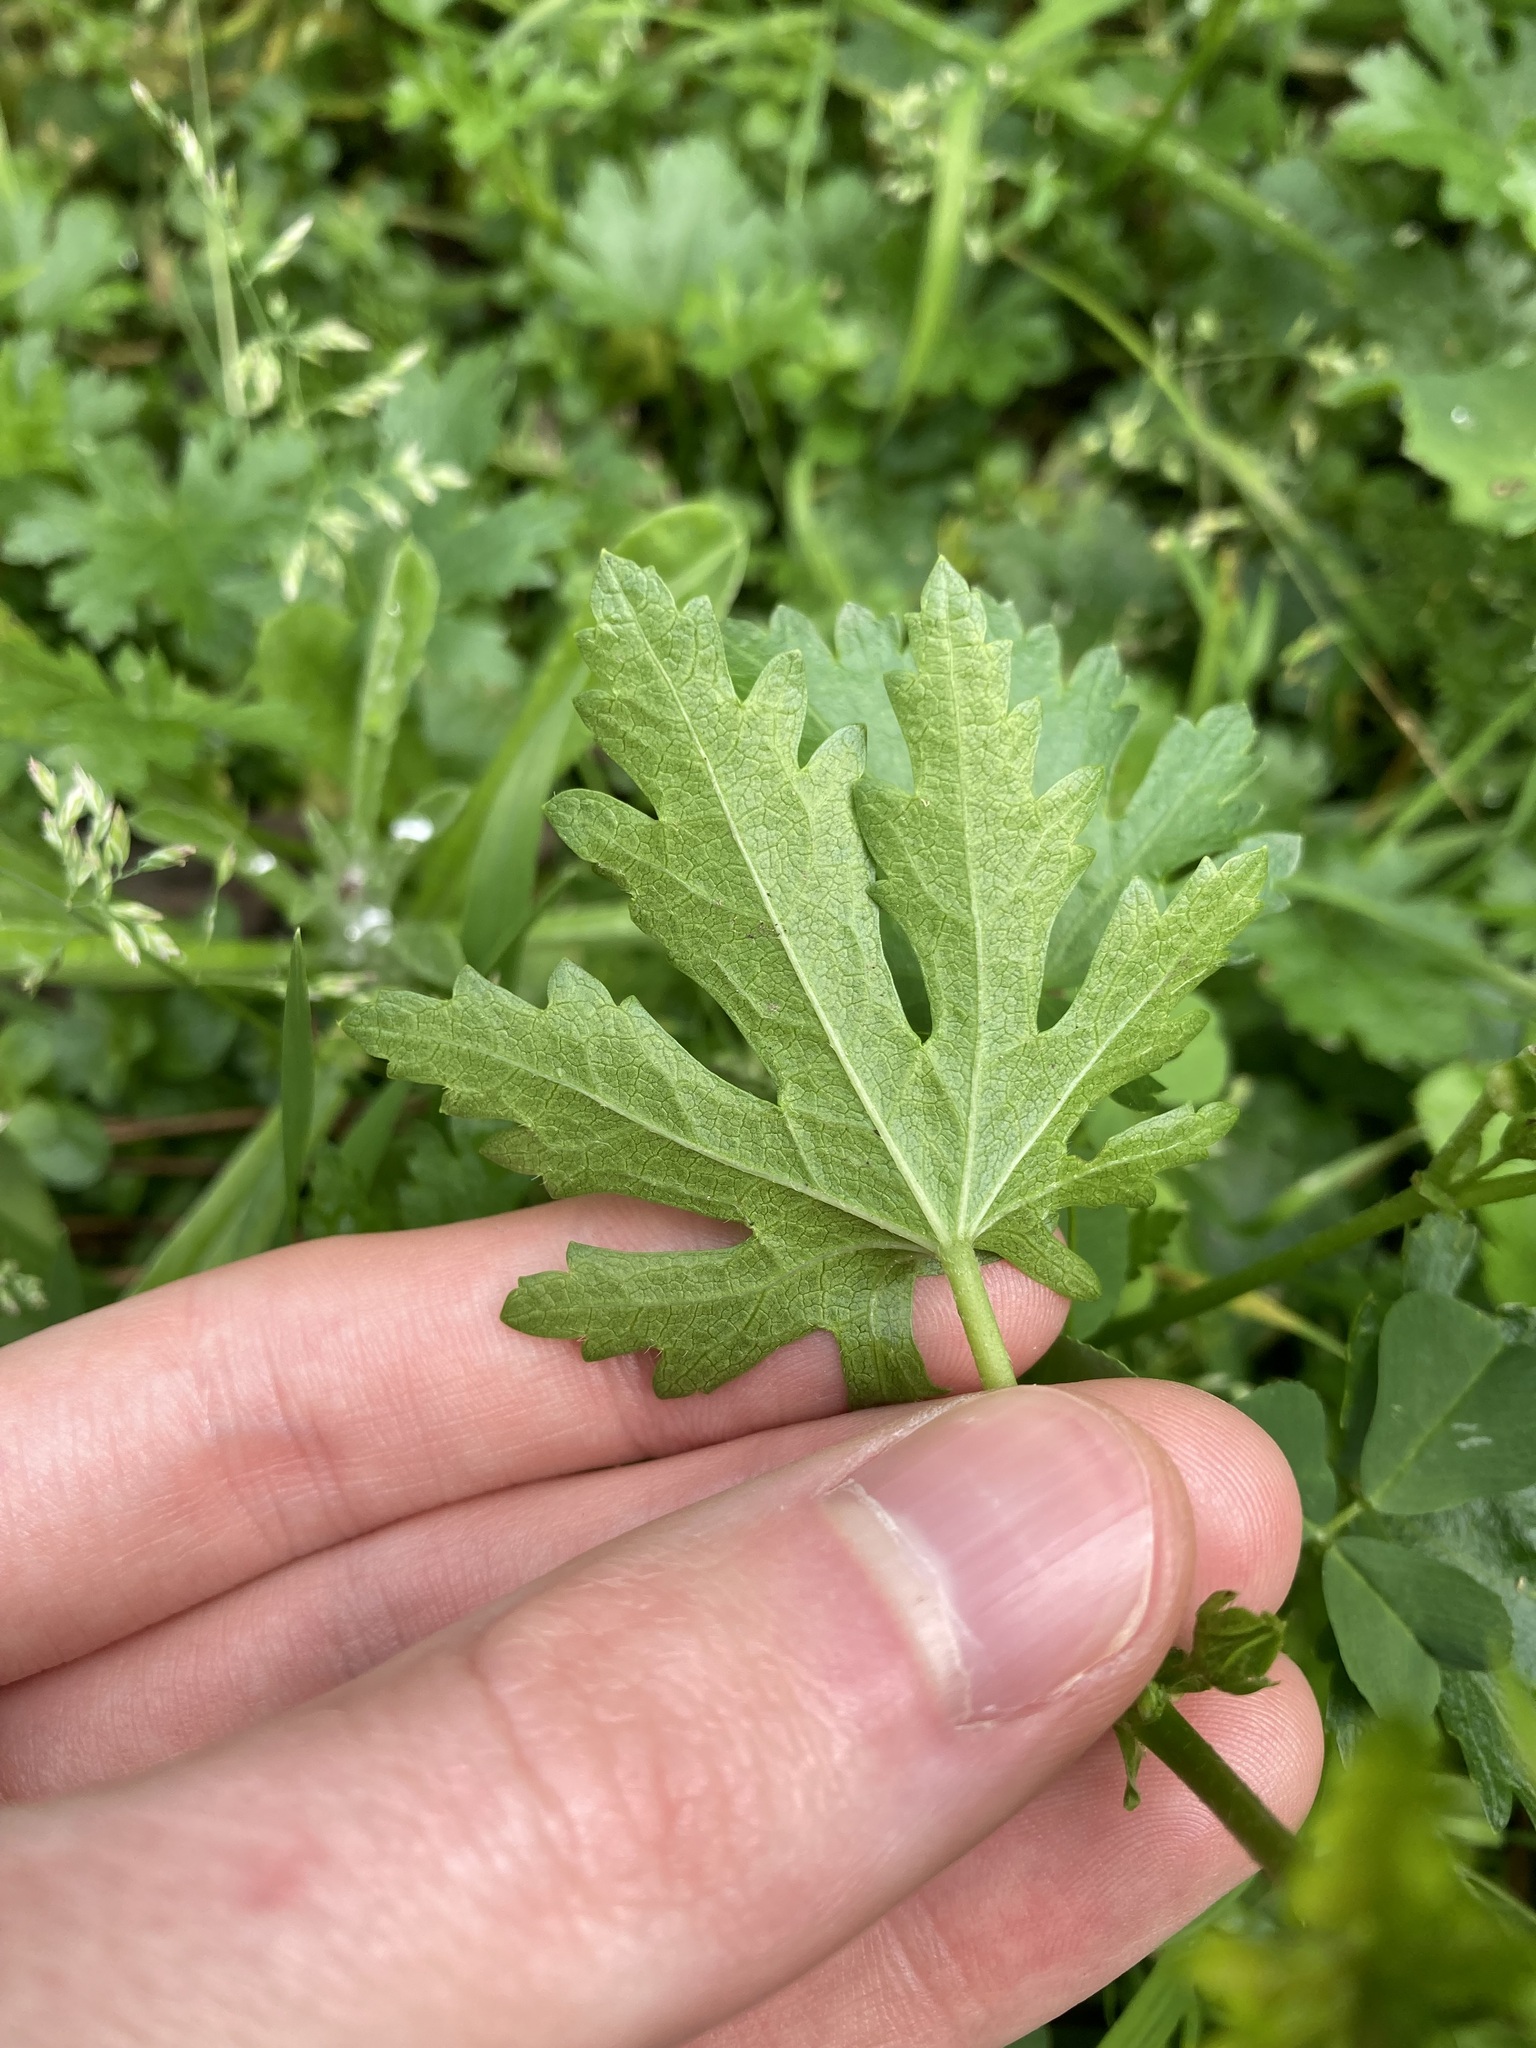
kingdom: Plantae
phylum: Tracheophyta
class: Magnoliopsida
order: Malvales
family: Malvaceae
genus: Modiola
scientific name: Modiola caroliniana
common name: Carolina bristlemallow
